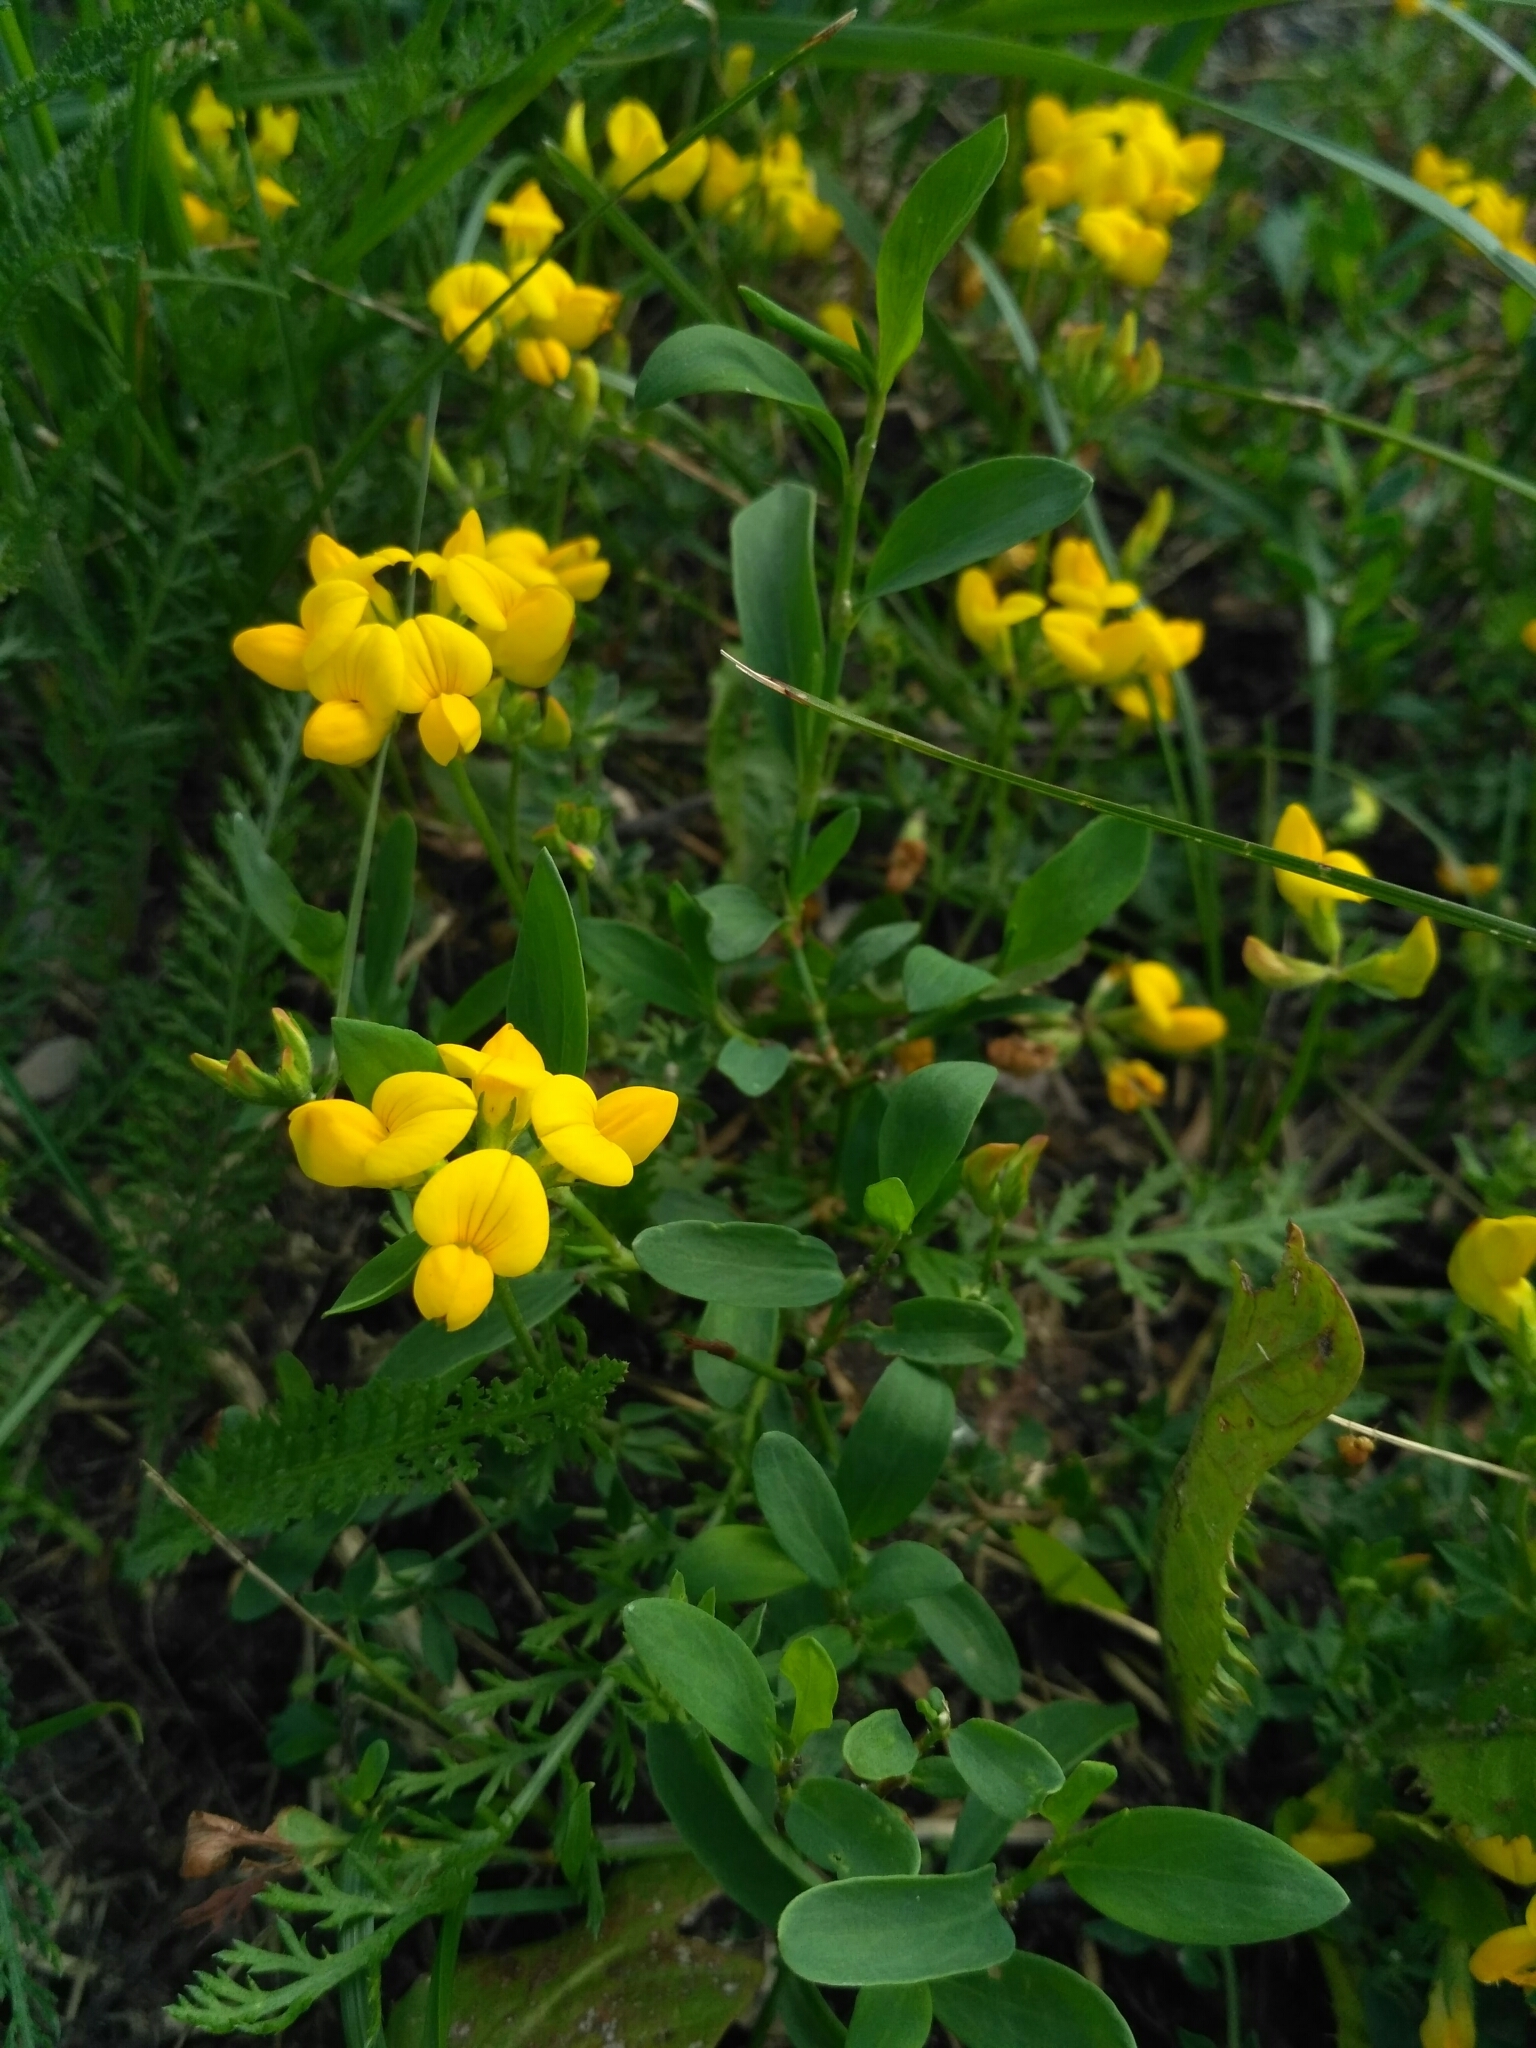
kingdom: Plantae
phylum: Tracheophyta
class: Magnoliopsida
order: Fabales
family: Fabaceae
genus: Lotus
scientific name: Lotus corniculatus
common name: Common bird's-foot-trefoil
